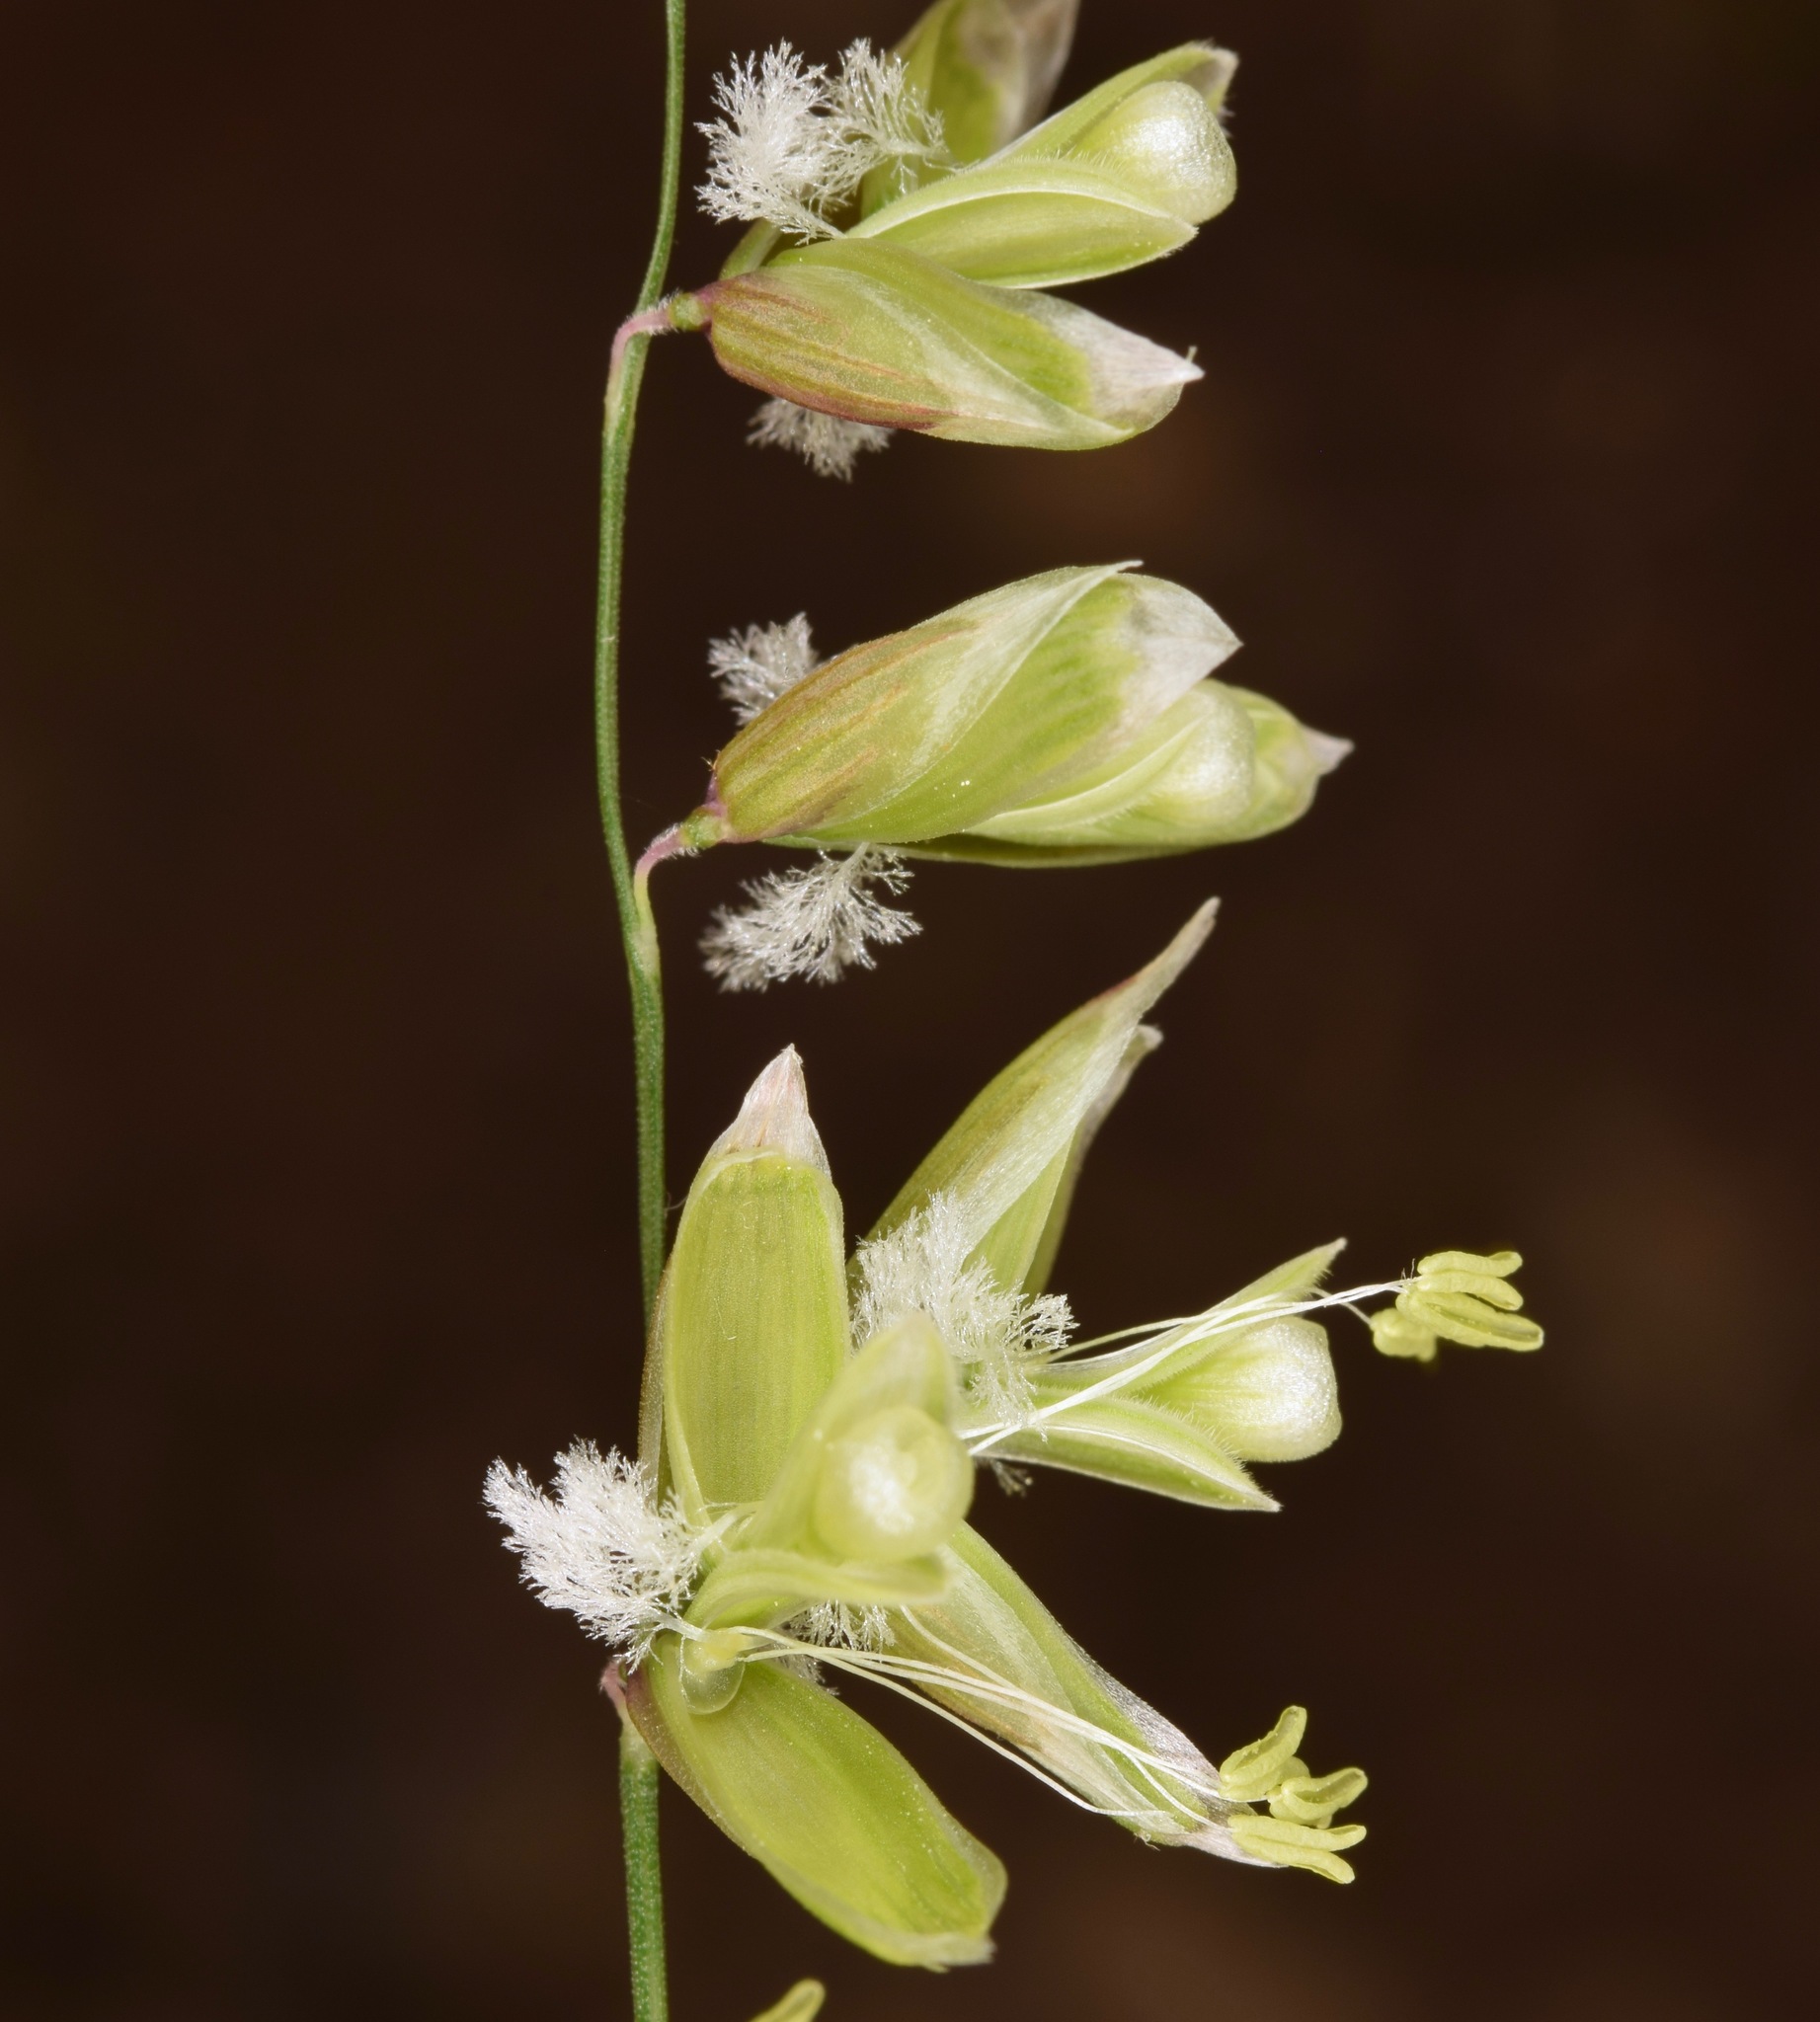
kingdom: Plantae
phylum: Tracheophyta
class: Liliopsida
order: Poales
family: Poaceae
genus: Melica
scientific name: Melica mutica
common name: Two-flower melic
